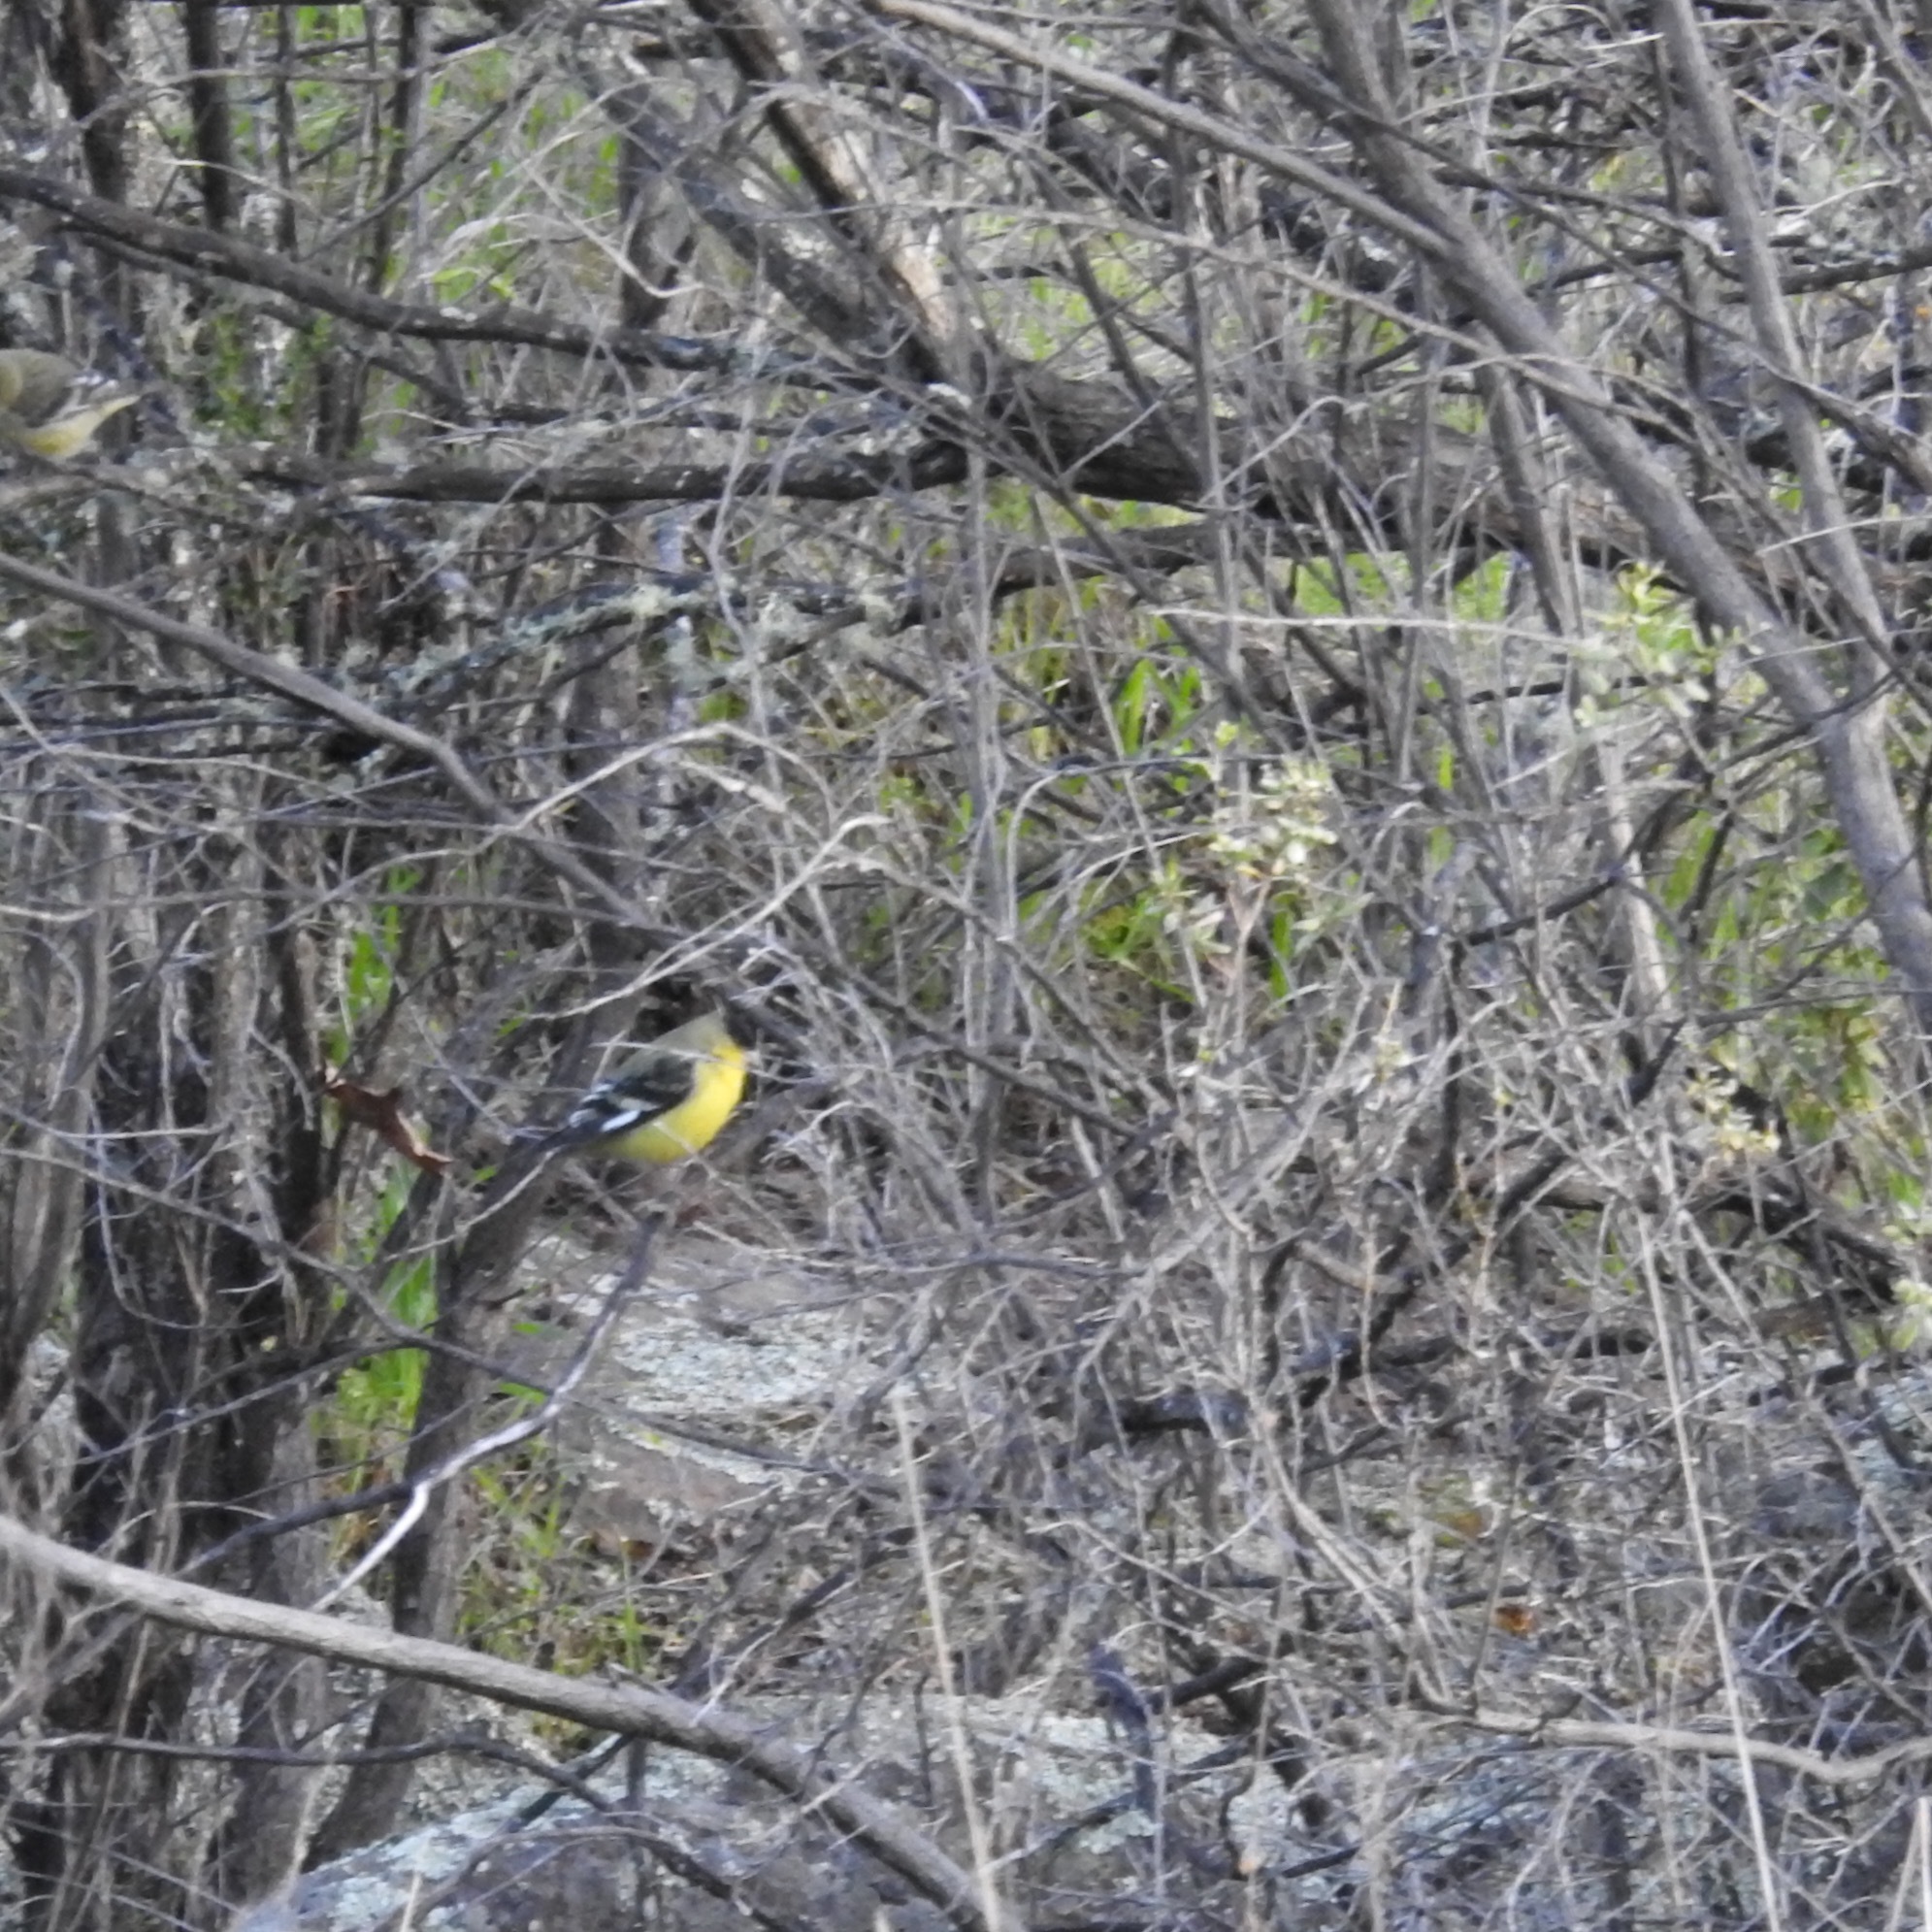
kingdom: Animalia
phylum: Chordata
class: Aves
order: Passeriformes
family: Fringillidae
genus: Spinus
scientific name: Spinus psaltria
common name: Lesser goldfinch
